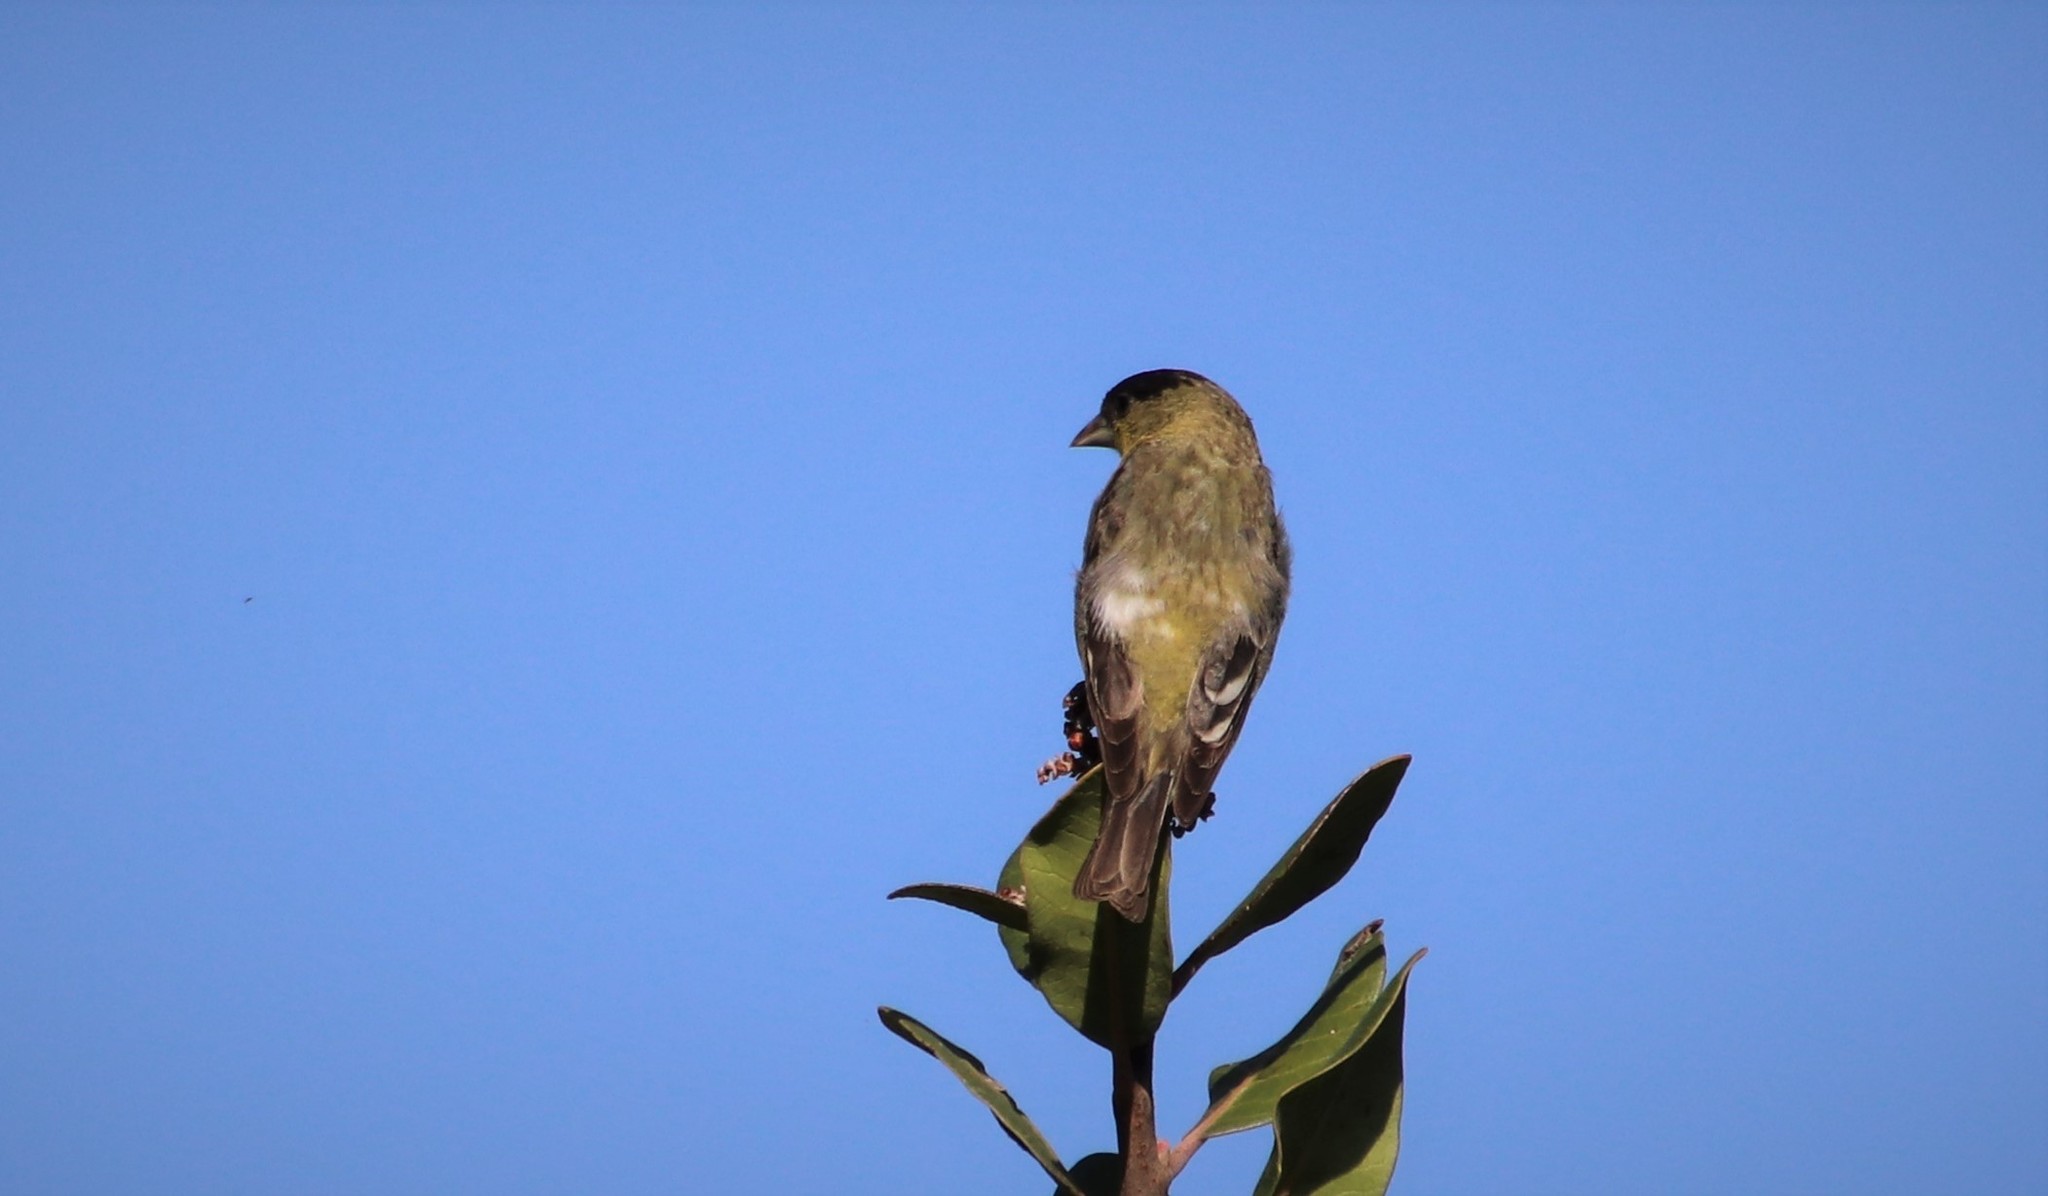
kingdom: Animalia
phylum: Chordata
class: Aves
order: Passeriformes
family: Fringillidae
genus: Spinus
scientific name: Spinus psaltria
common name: Lesser goldfinch
